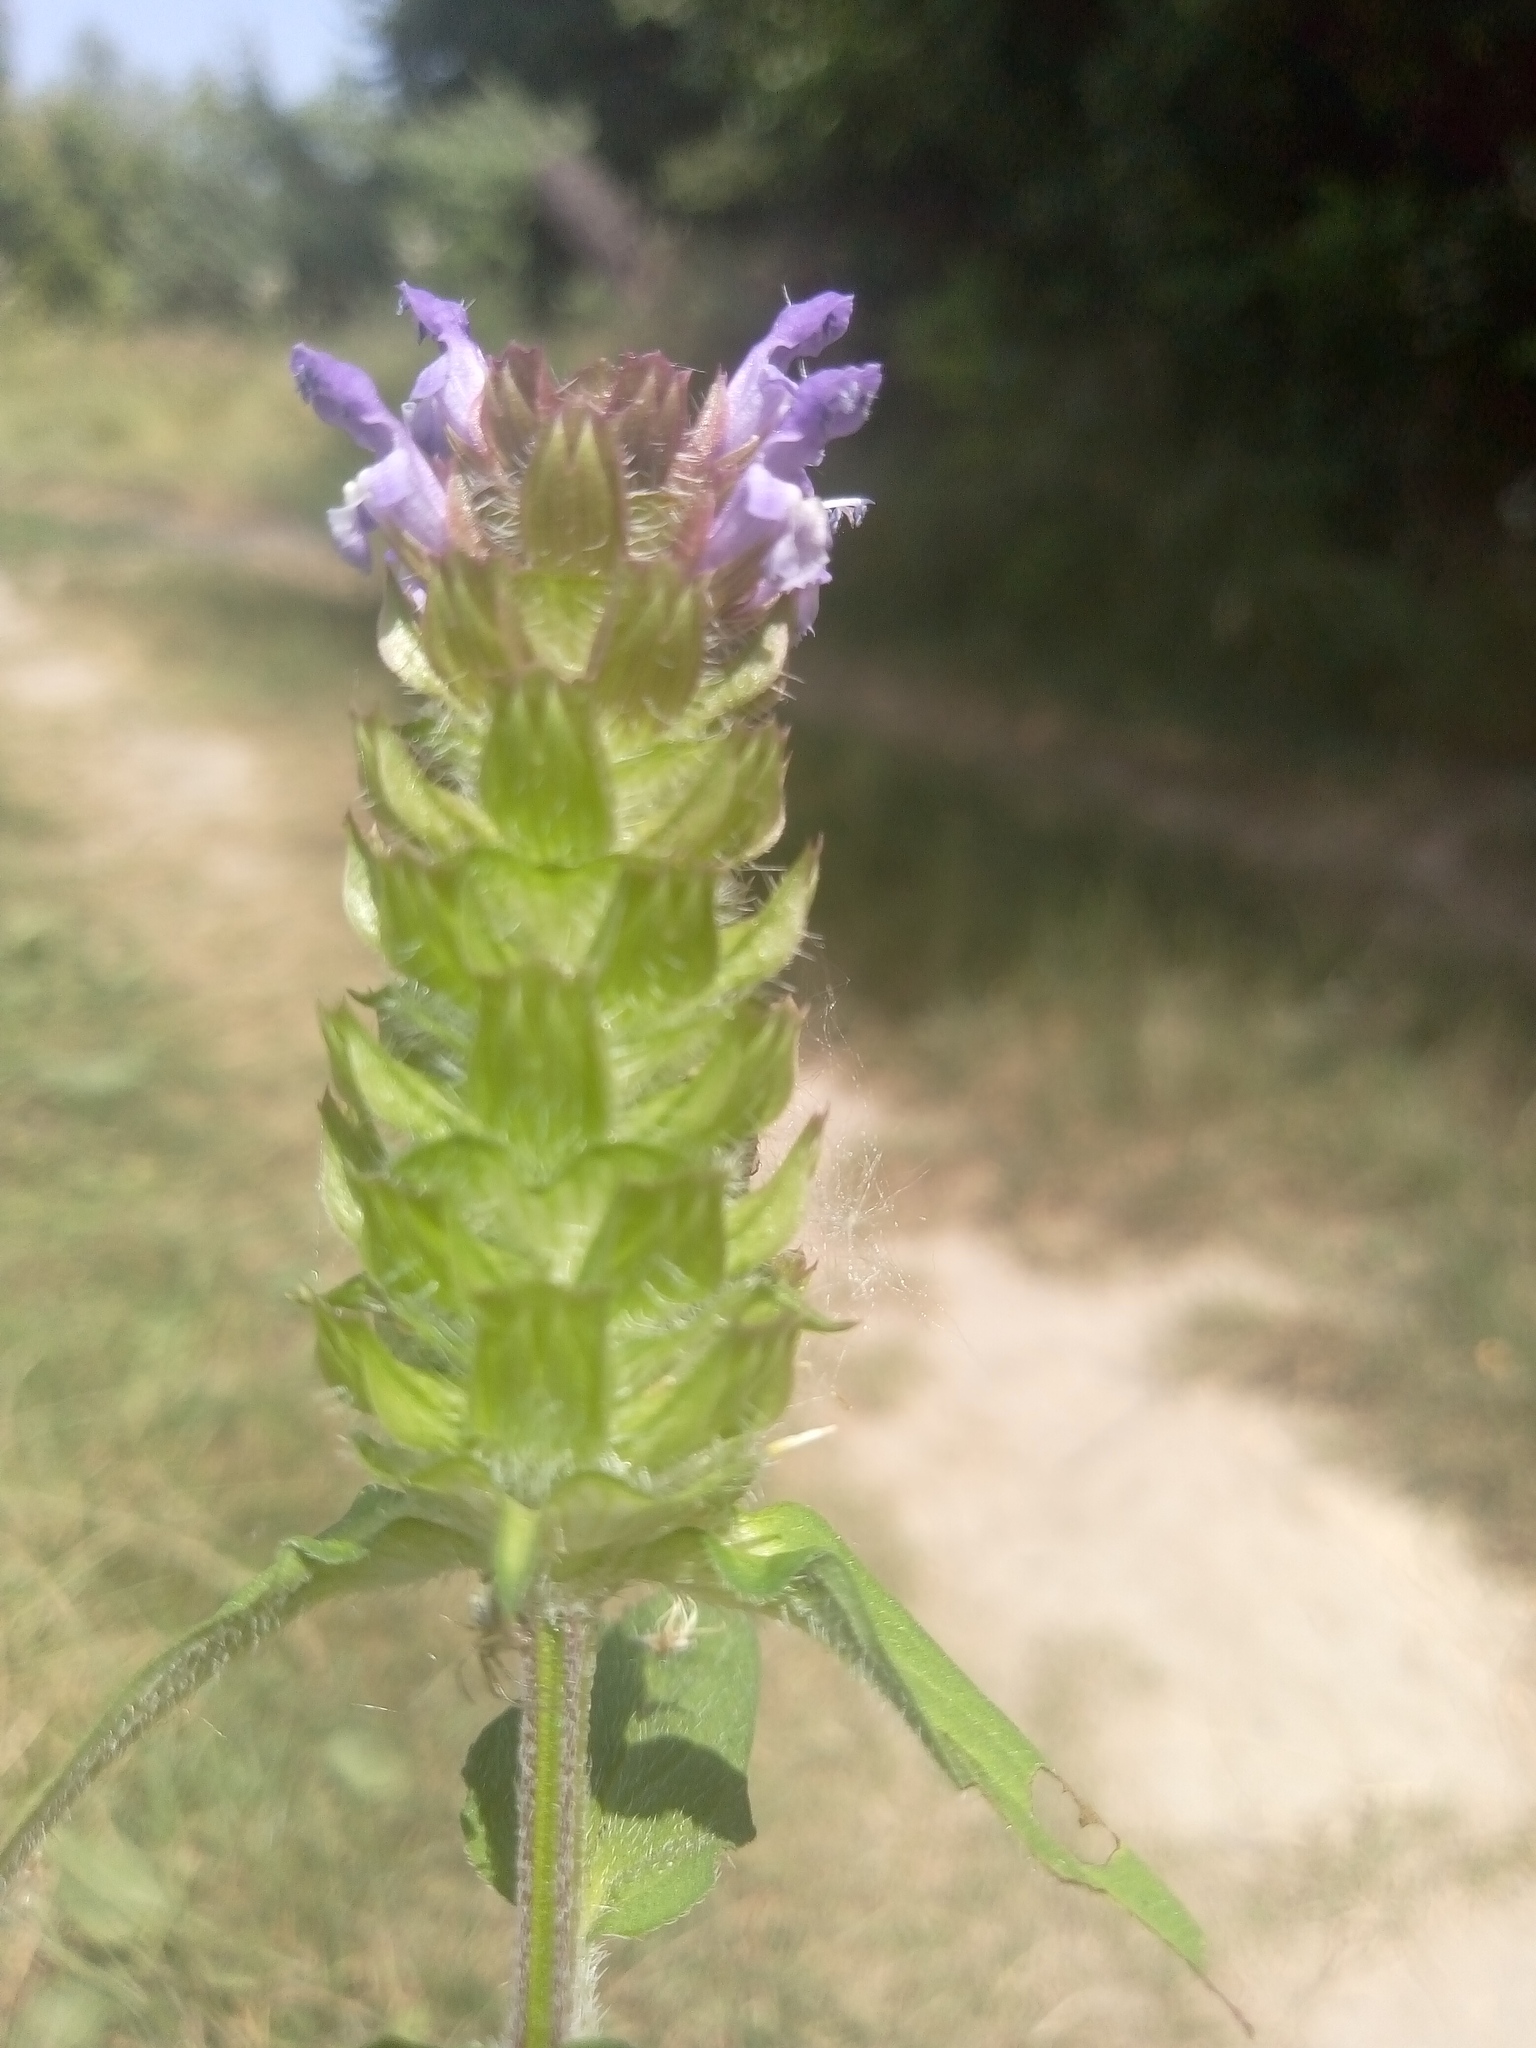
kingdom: Plantae
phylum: Tracheophyta
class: Magnoliopsida
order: Lamiales
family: Lamiaceae
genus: Prunella
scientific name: Prunella vulgaris
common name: Heal-all
